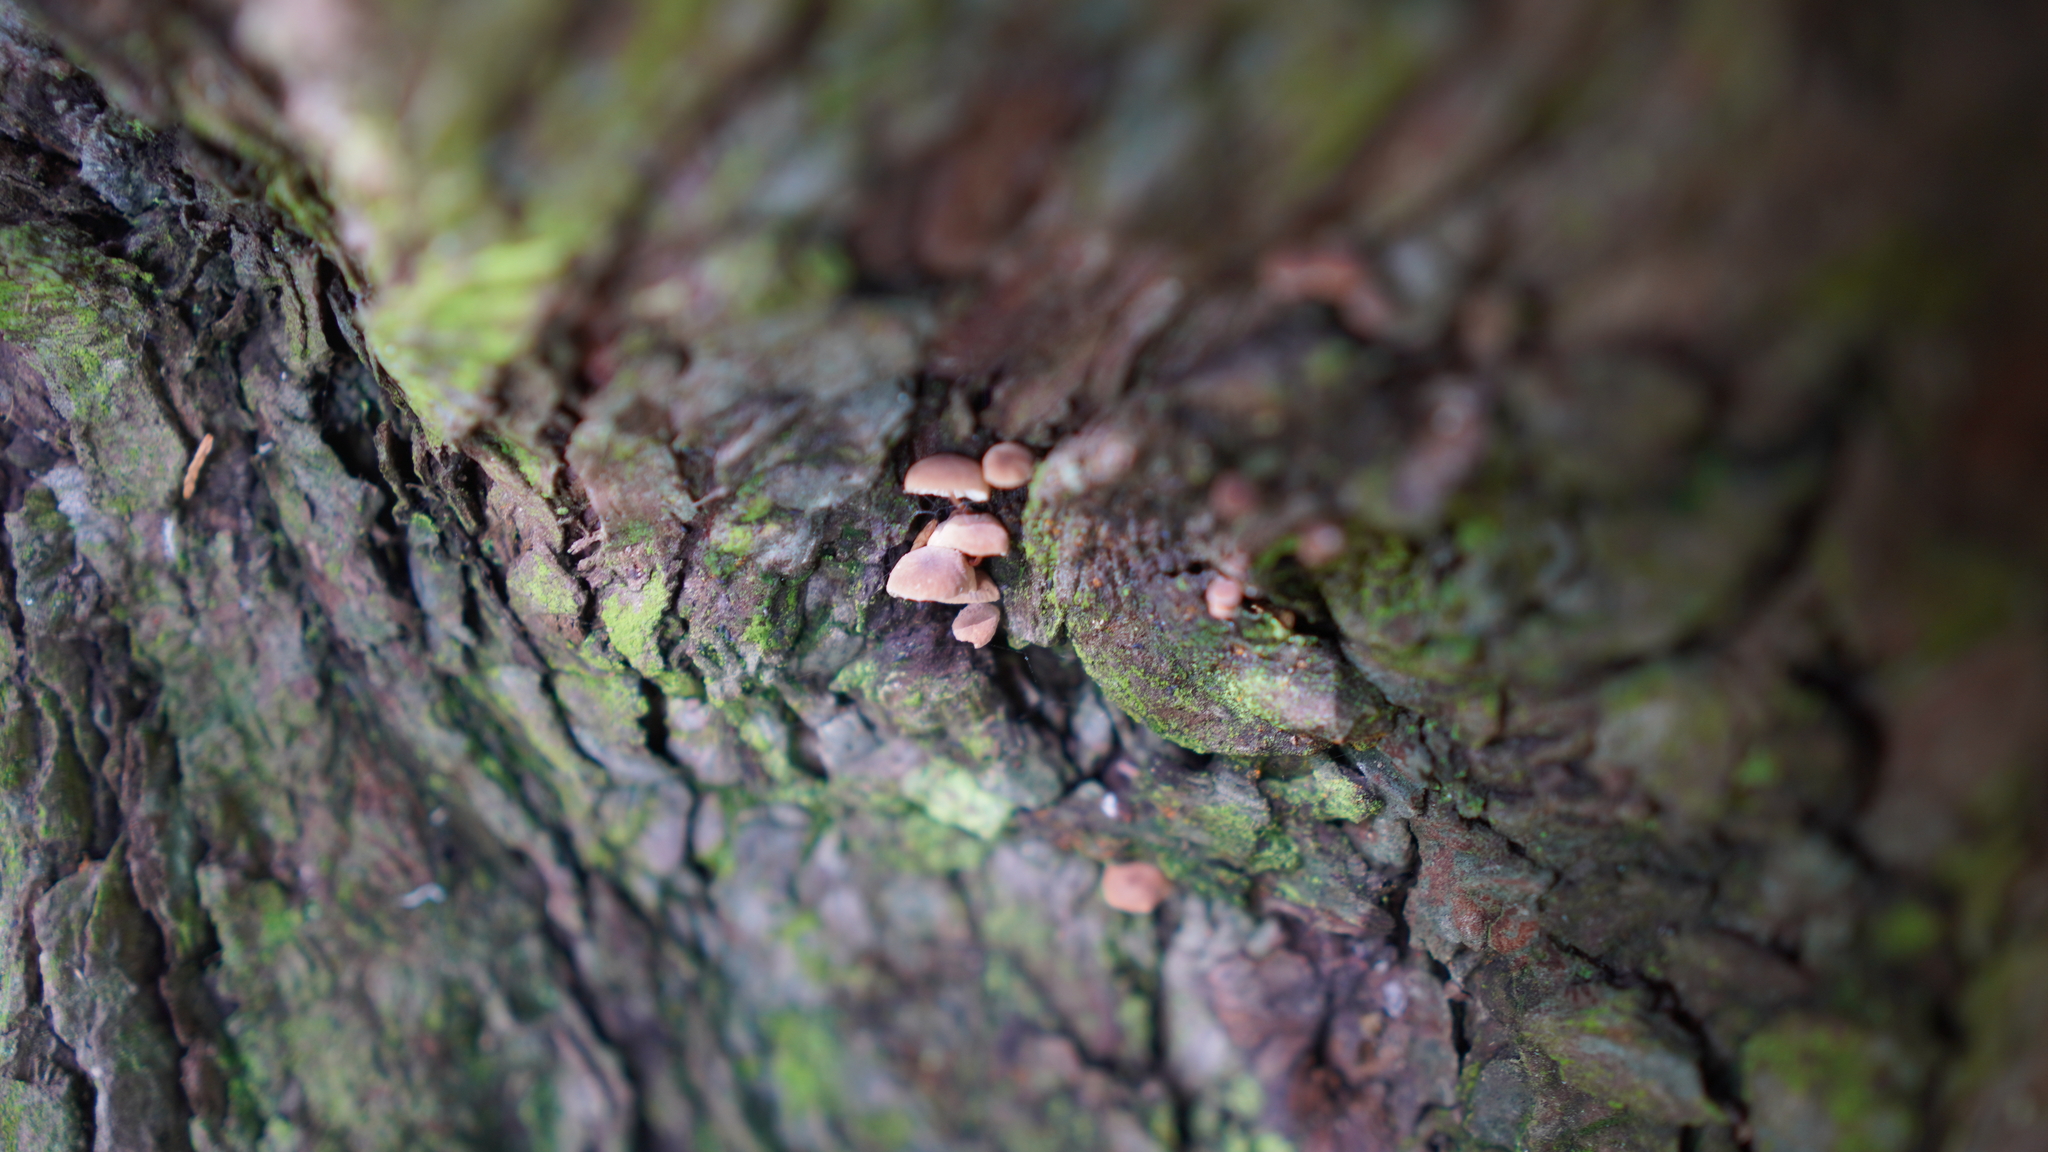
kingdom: Fungi
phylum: Basidiomycota
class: Agaricomycetes
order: Agaricales
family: Omphalotaceae
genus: Mycetinis
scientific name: Mycetinis curraniae
